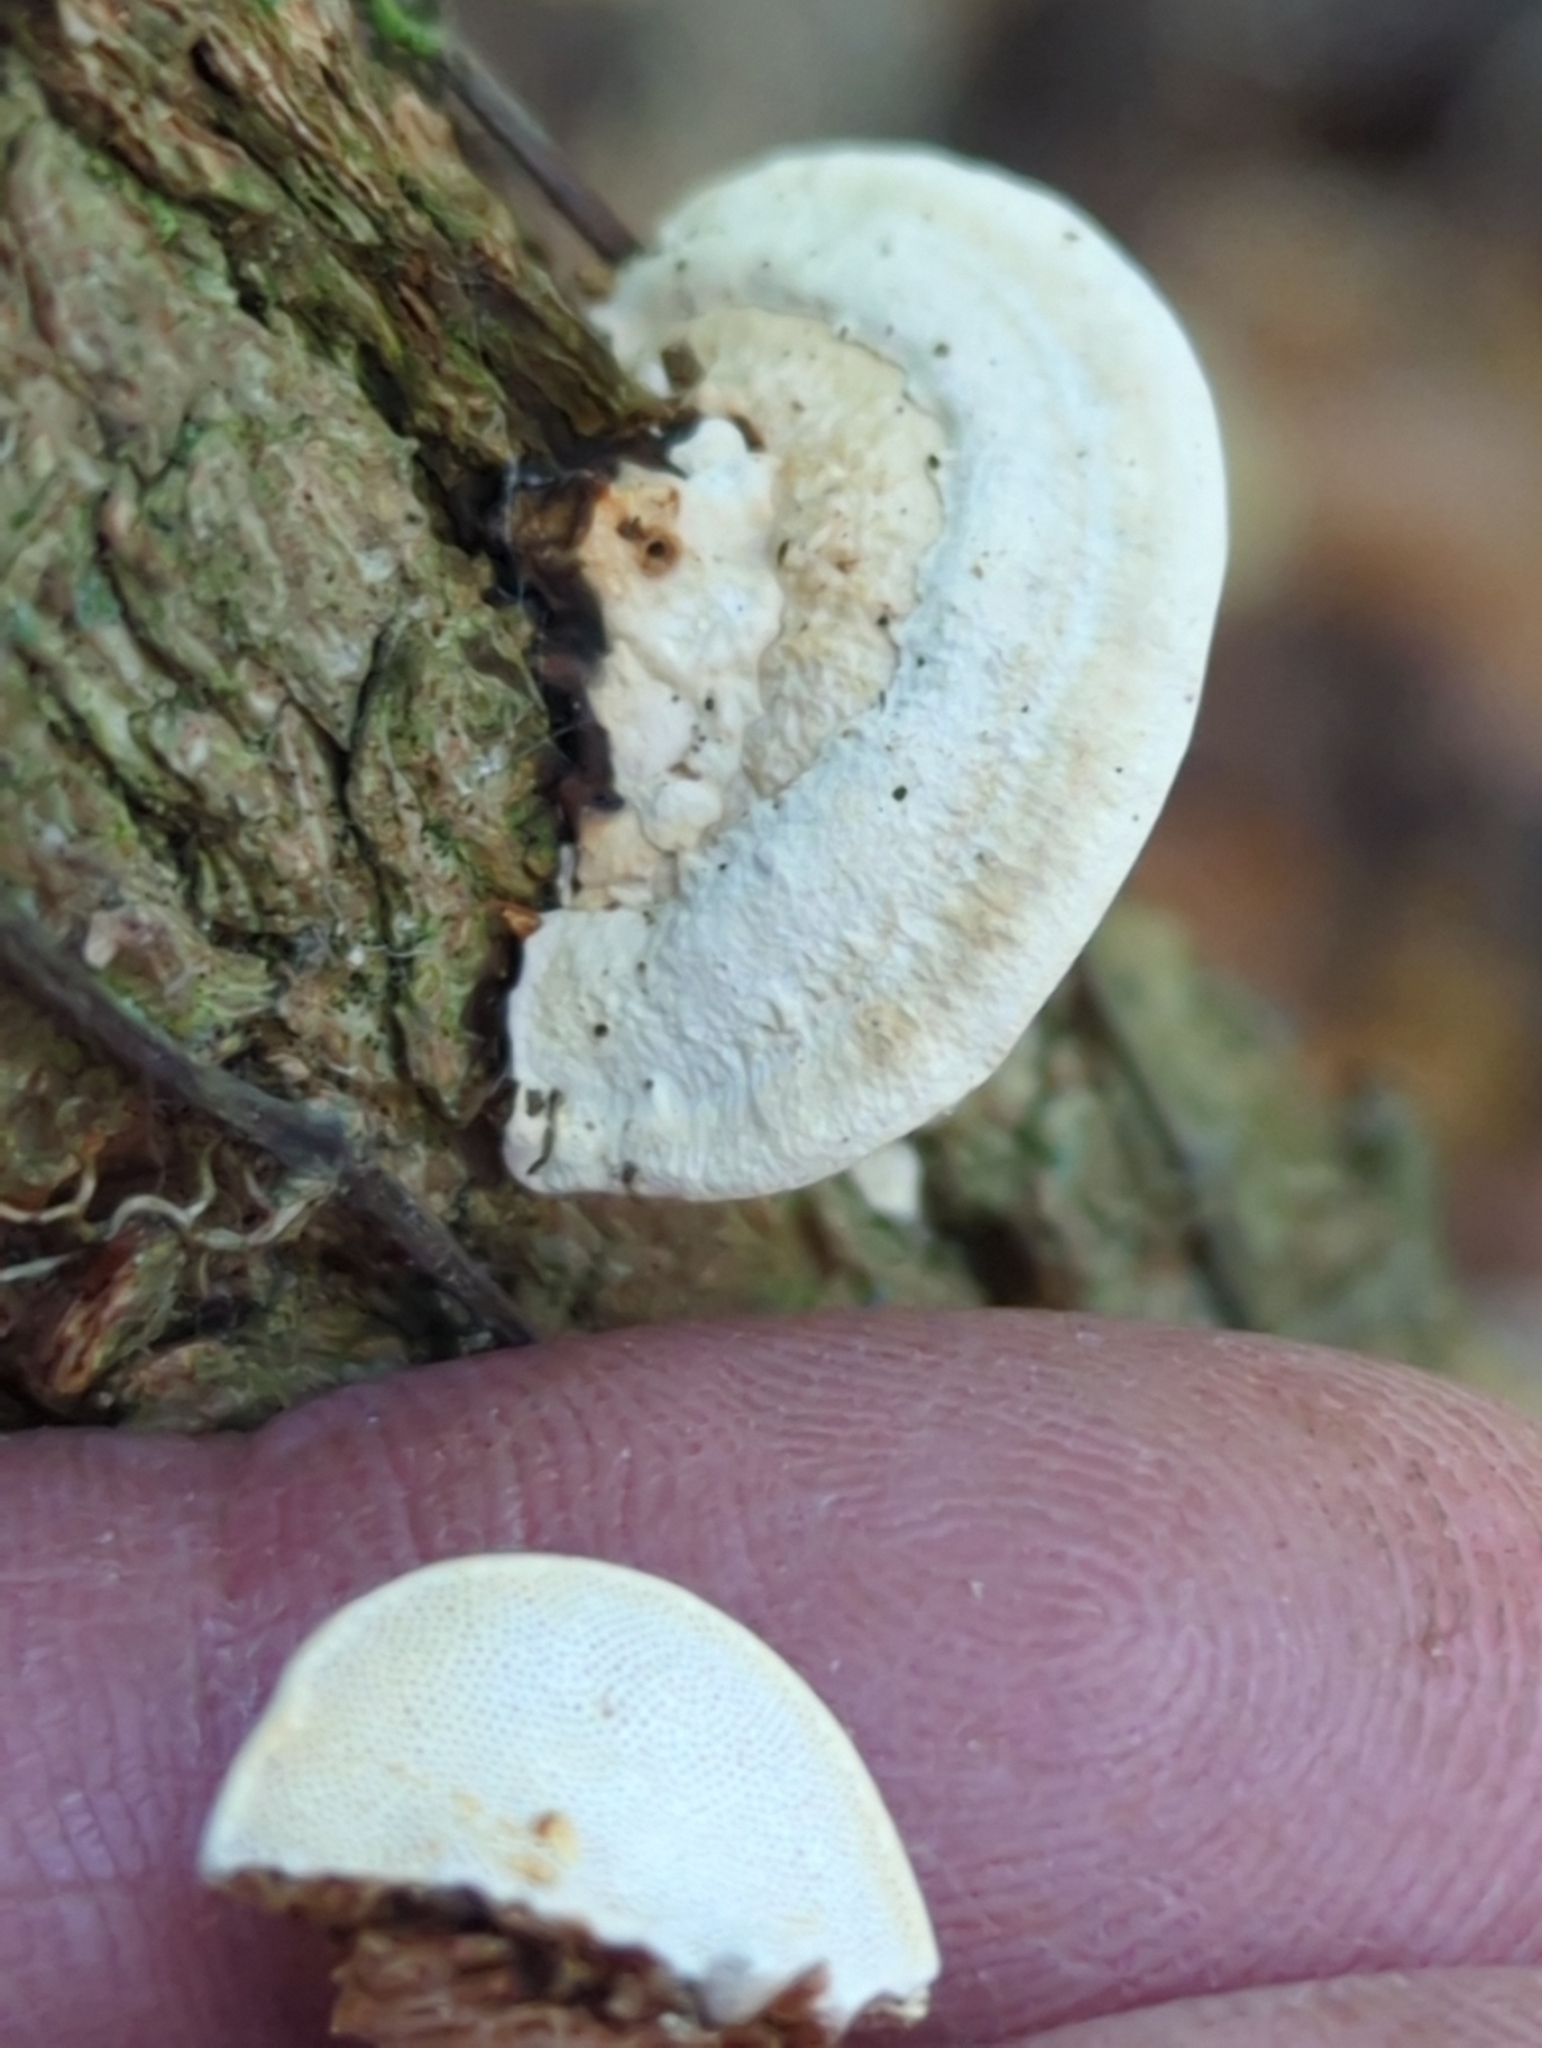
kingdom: Fungi
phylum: Basidiomycota
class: Agaricomycetes
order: Polyporales
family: Polyporaceae
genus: Perenniporia
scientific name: Perenniporia ohiensis
